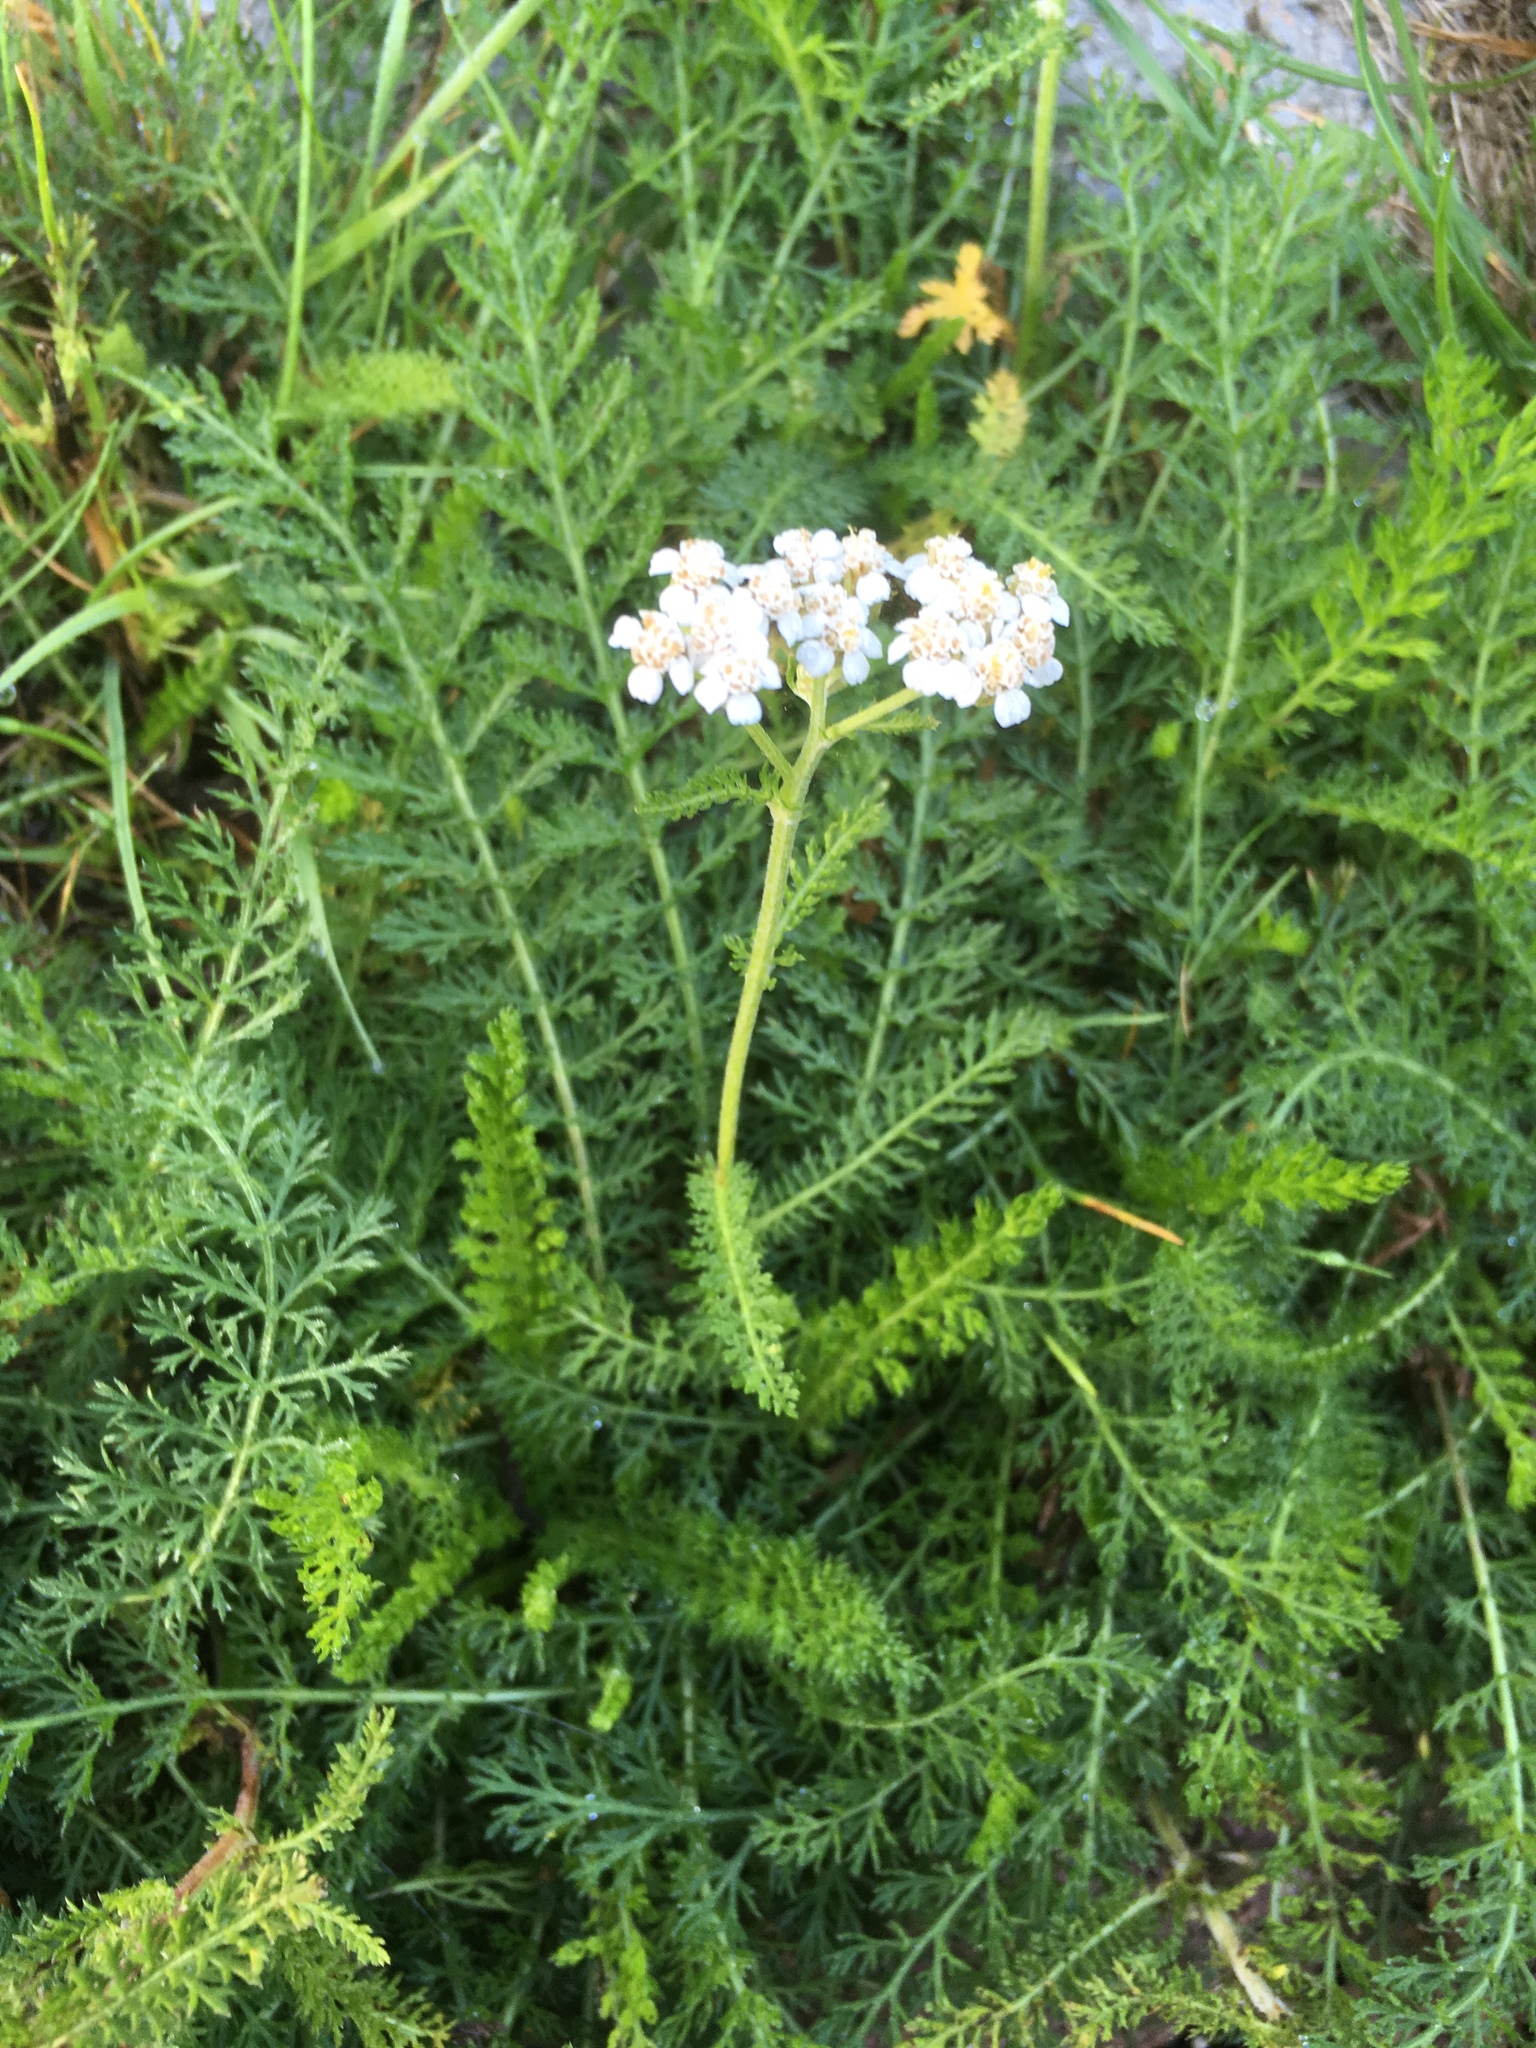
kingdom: Plantae
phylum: Tracheophyta
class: Magnoliopsida
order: Asterales
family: Asteraceae
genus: Achillea
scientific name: Achillea millefolium
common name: Yarrow
